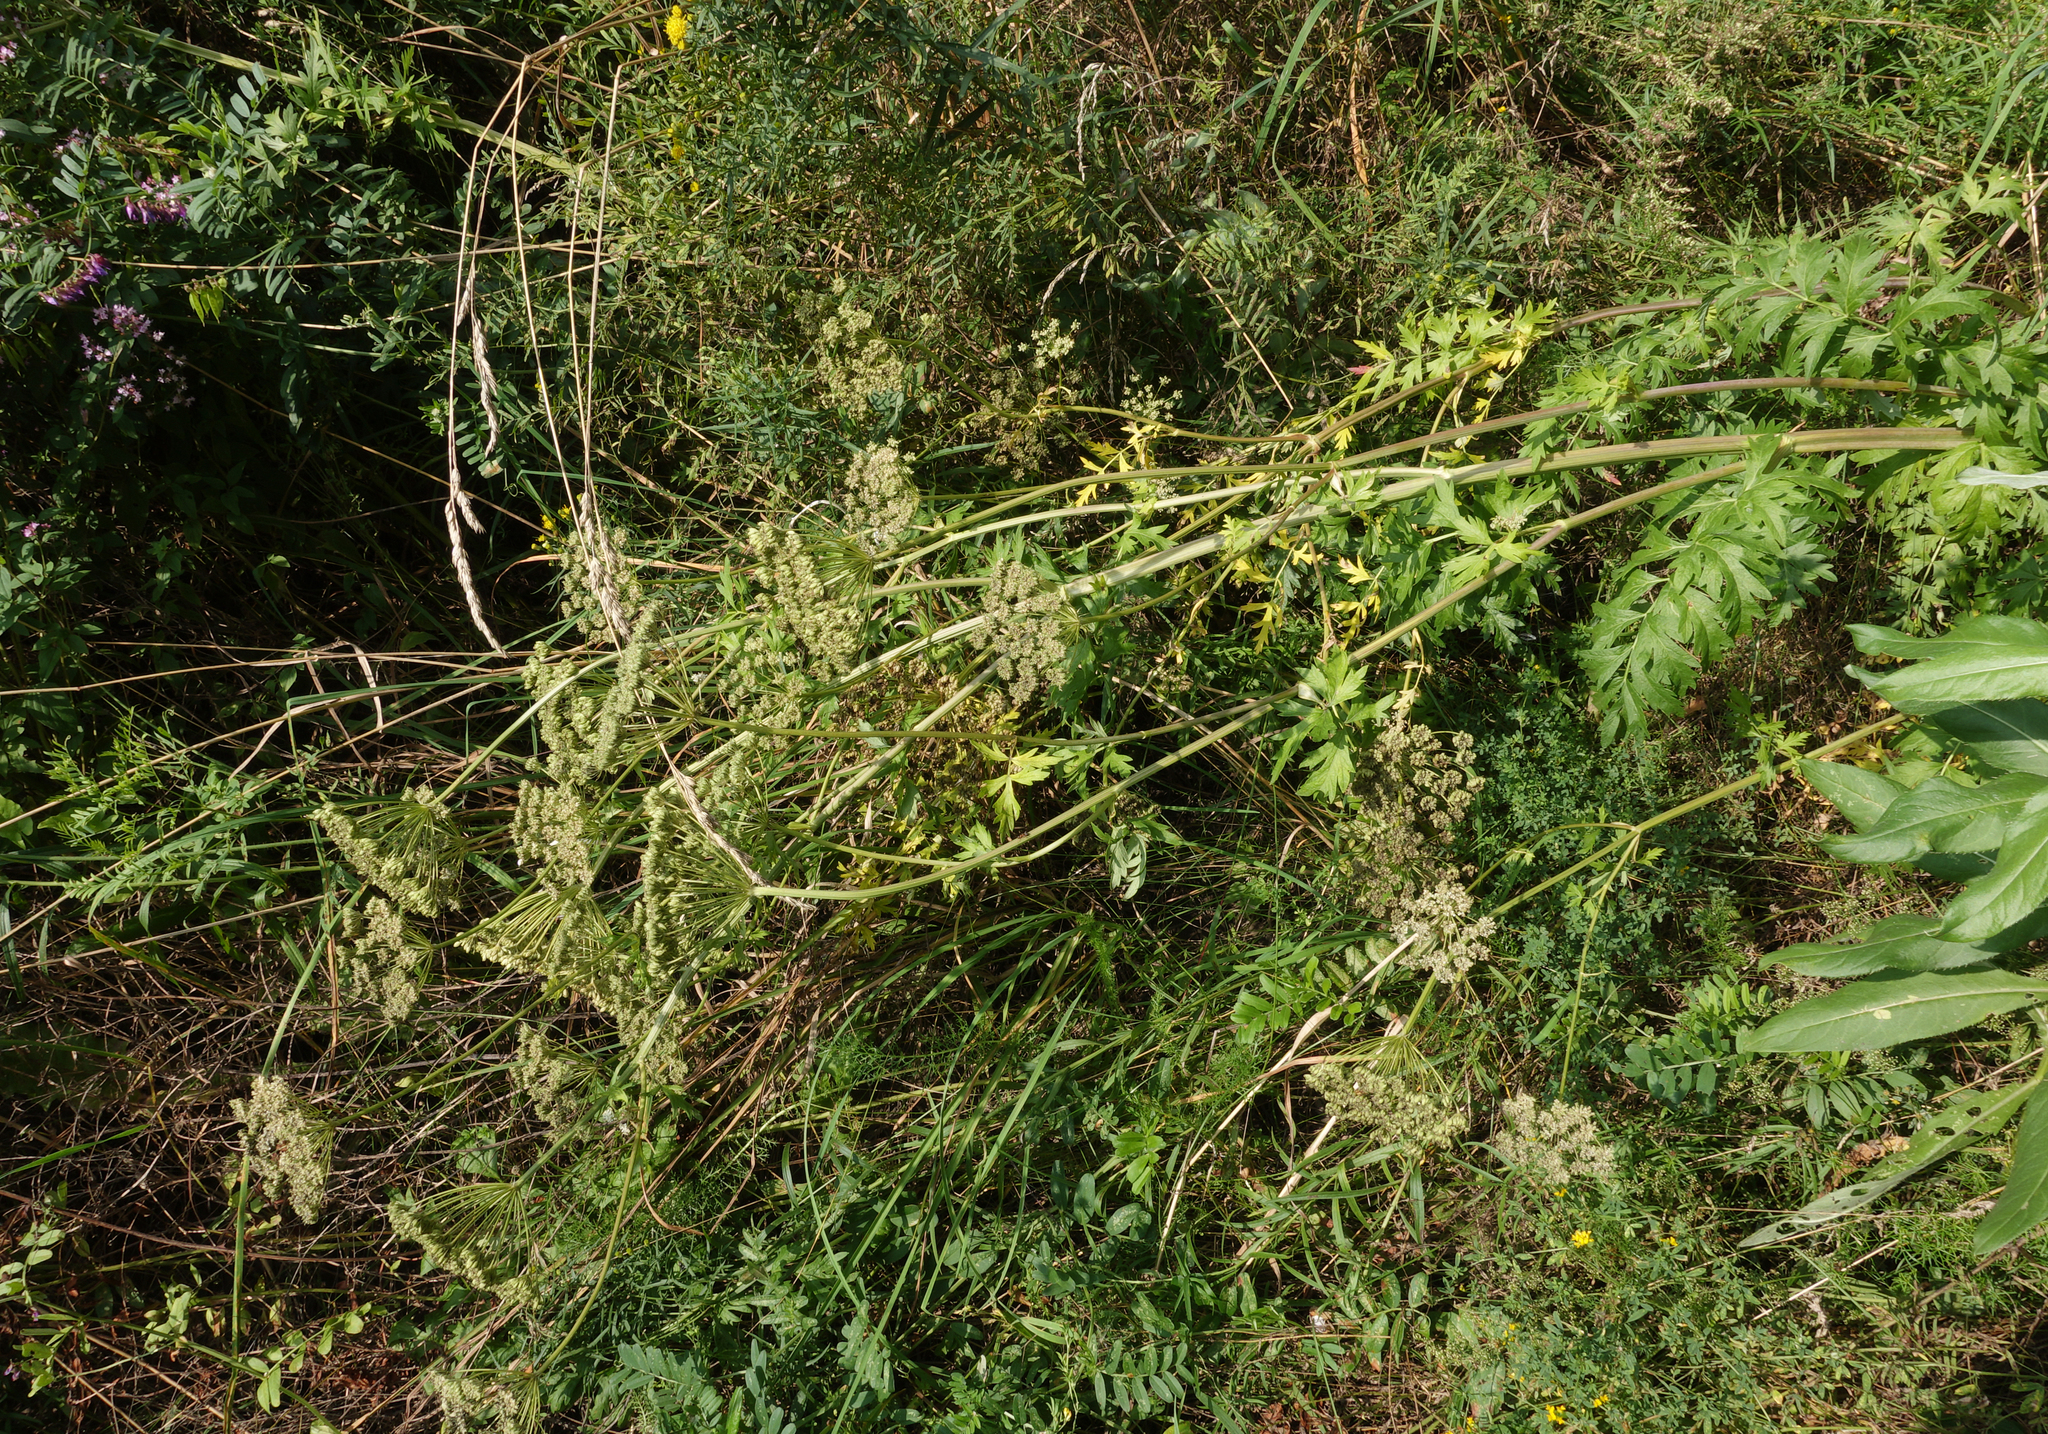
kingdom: Plantae
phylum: Tracheophyta
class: Magnoliopsida
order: Apiales
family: Apiaceae
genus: Seseli
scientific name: Seseli libanotis
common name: Mooncarrot
